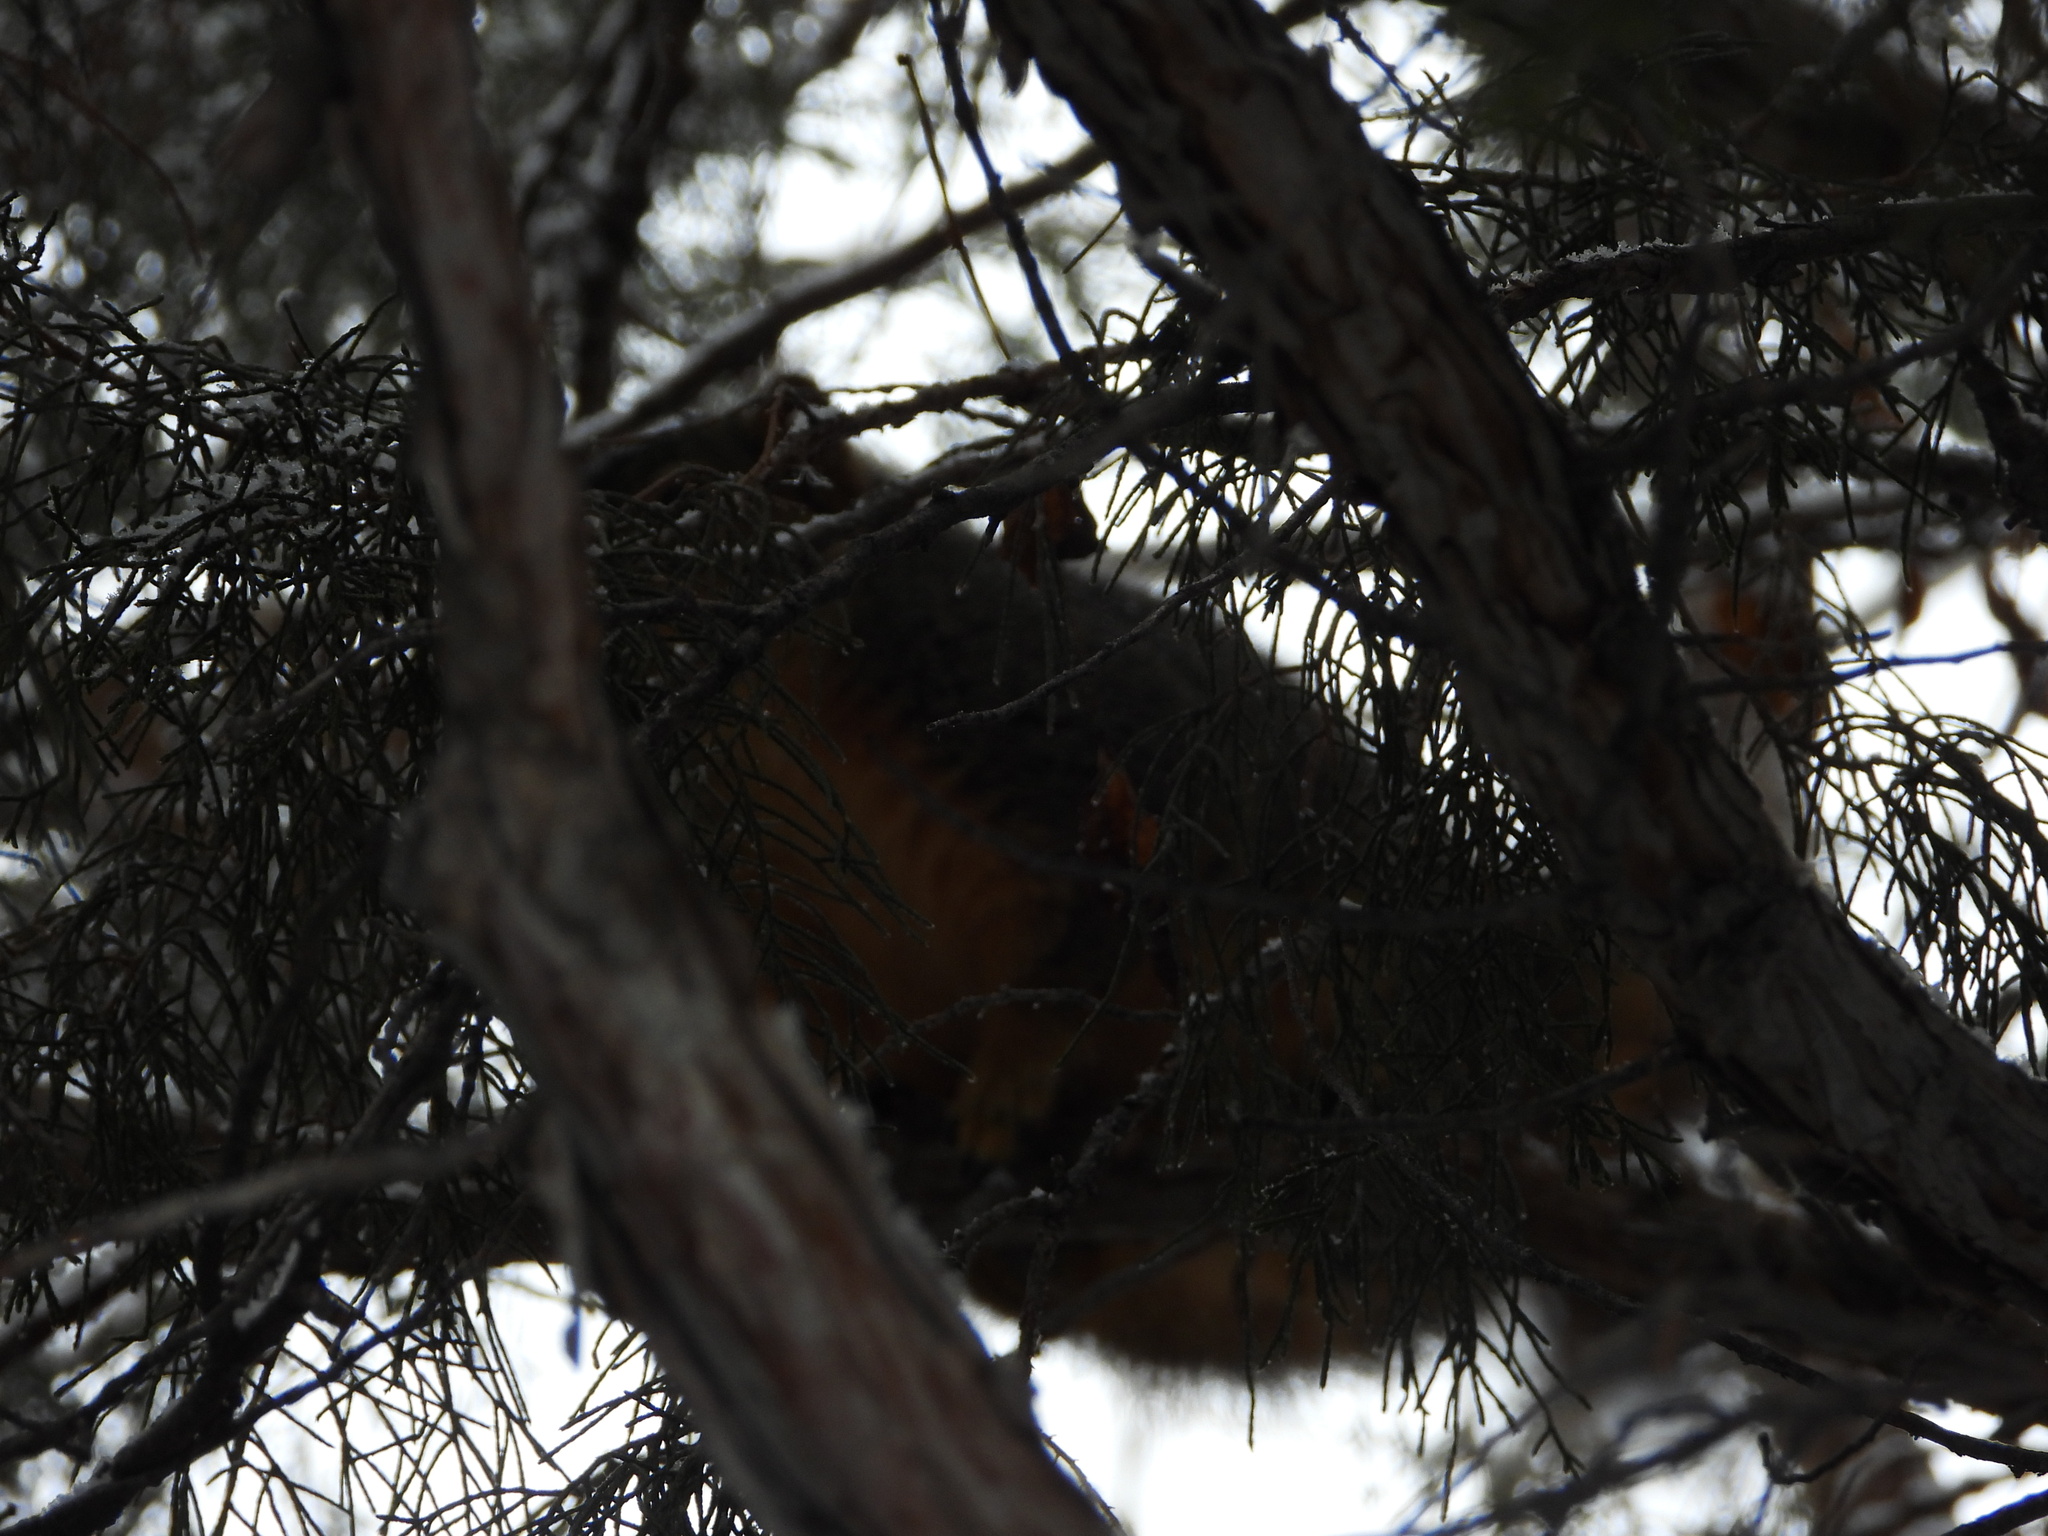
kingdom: Animalia
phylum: Chordata
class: Mammalia
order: Rodentia
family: Sciuridae
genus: Sciurus
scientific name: Sciurus niger
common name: Fox squirrel
